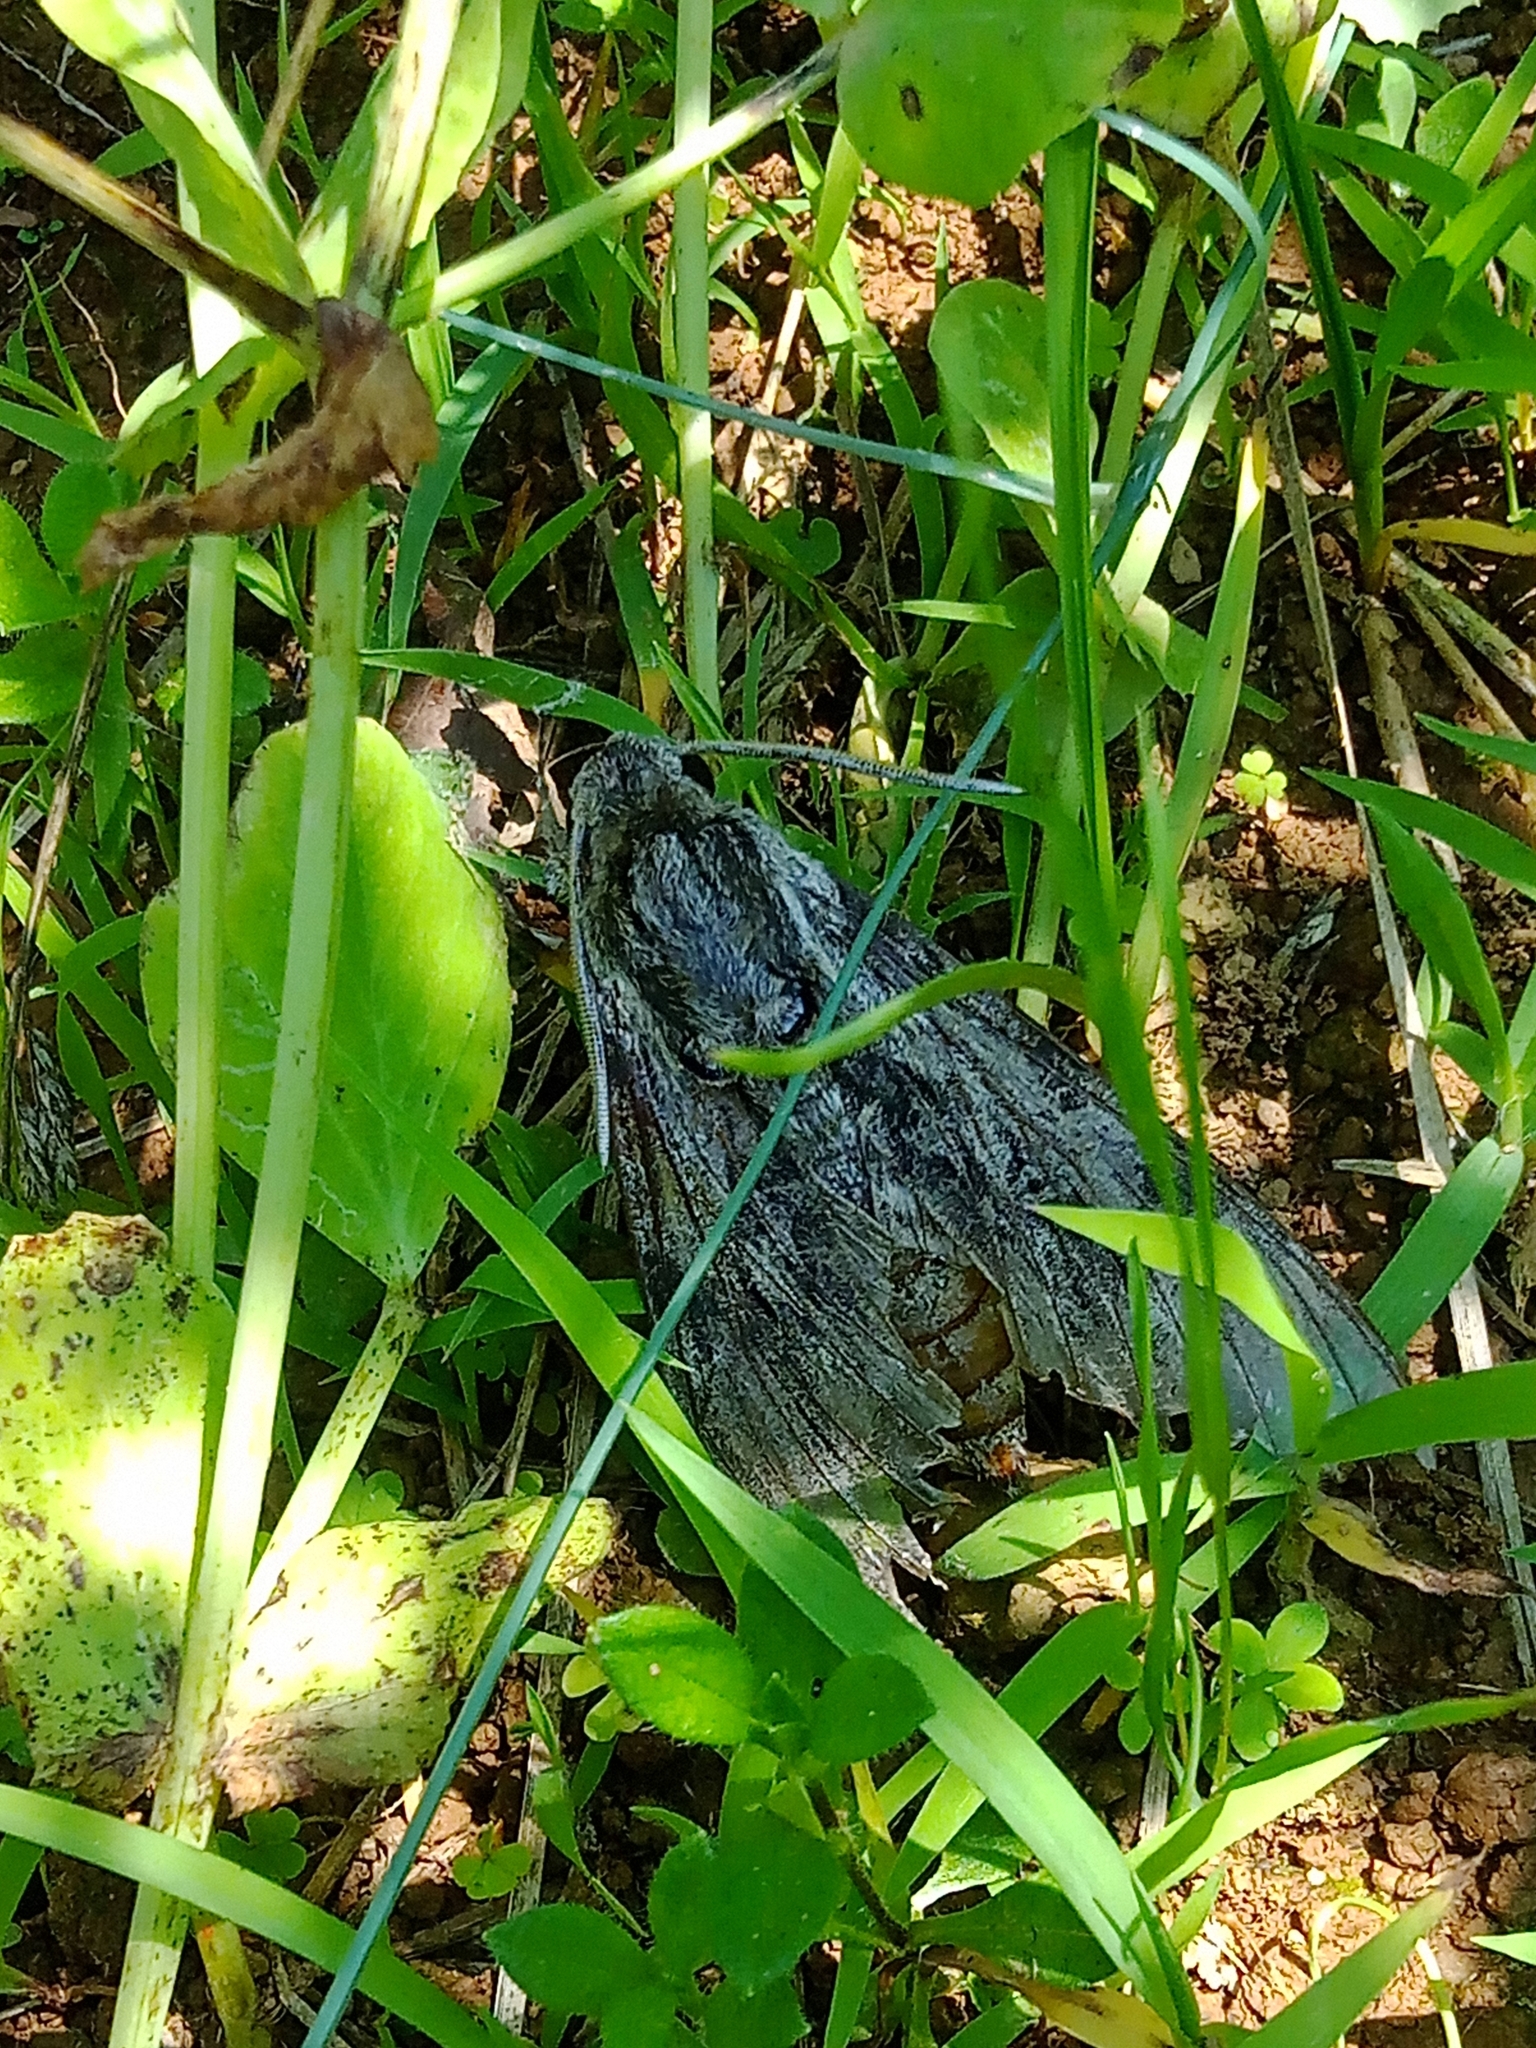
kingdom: Animalia
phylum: Arthropoda
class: Insecta
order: Lepidoptera
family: Sphingidae
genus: Agrius
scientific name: Agrius convolvuli
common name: Convolvulus hawkmoth
